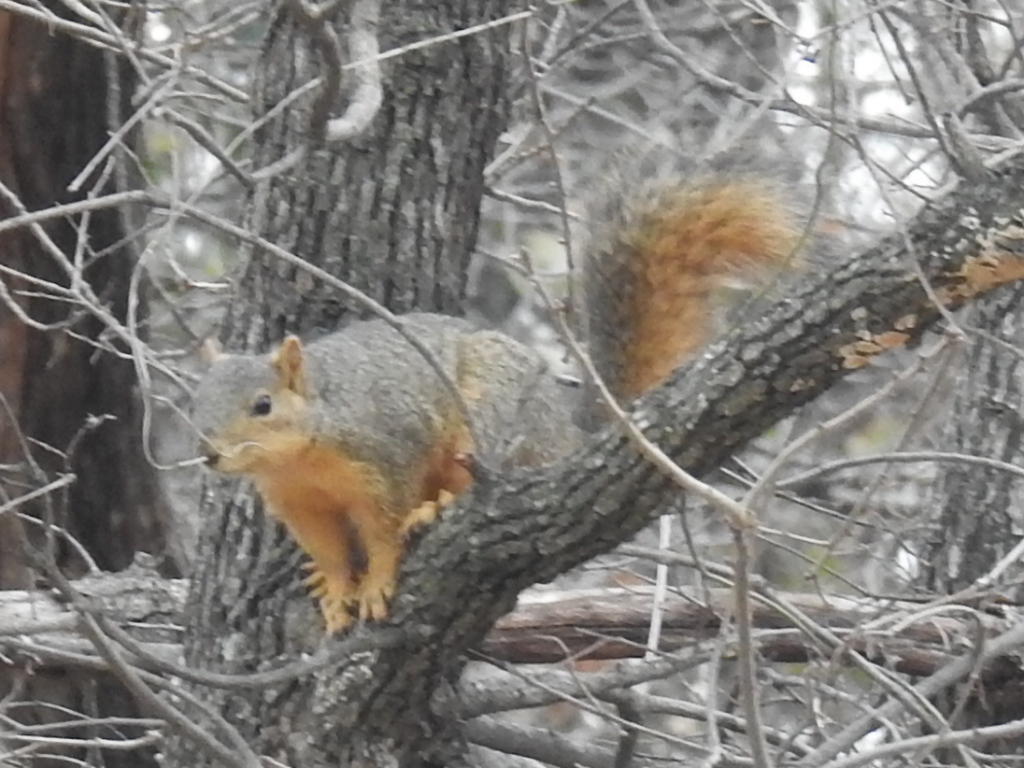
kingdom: Animalia
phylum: Chordata
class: Mammalia
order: Rodentia
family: Sciuridae
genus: Sciurus
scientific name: Sciurus niger
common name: Fox squirrel
